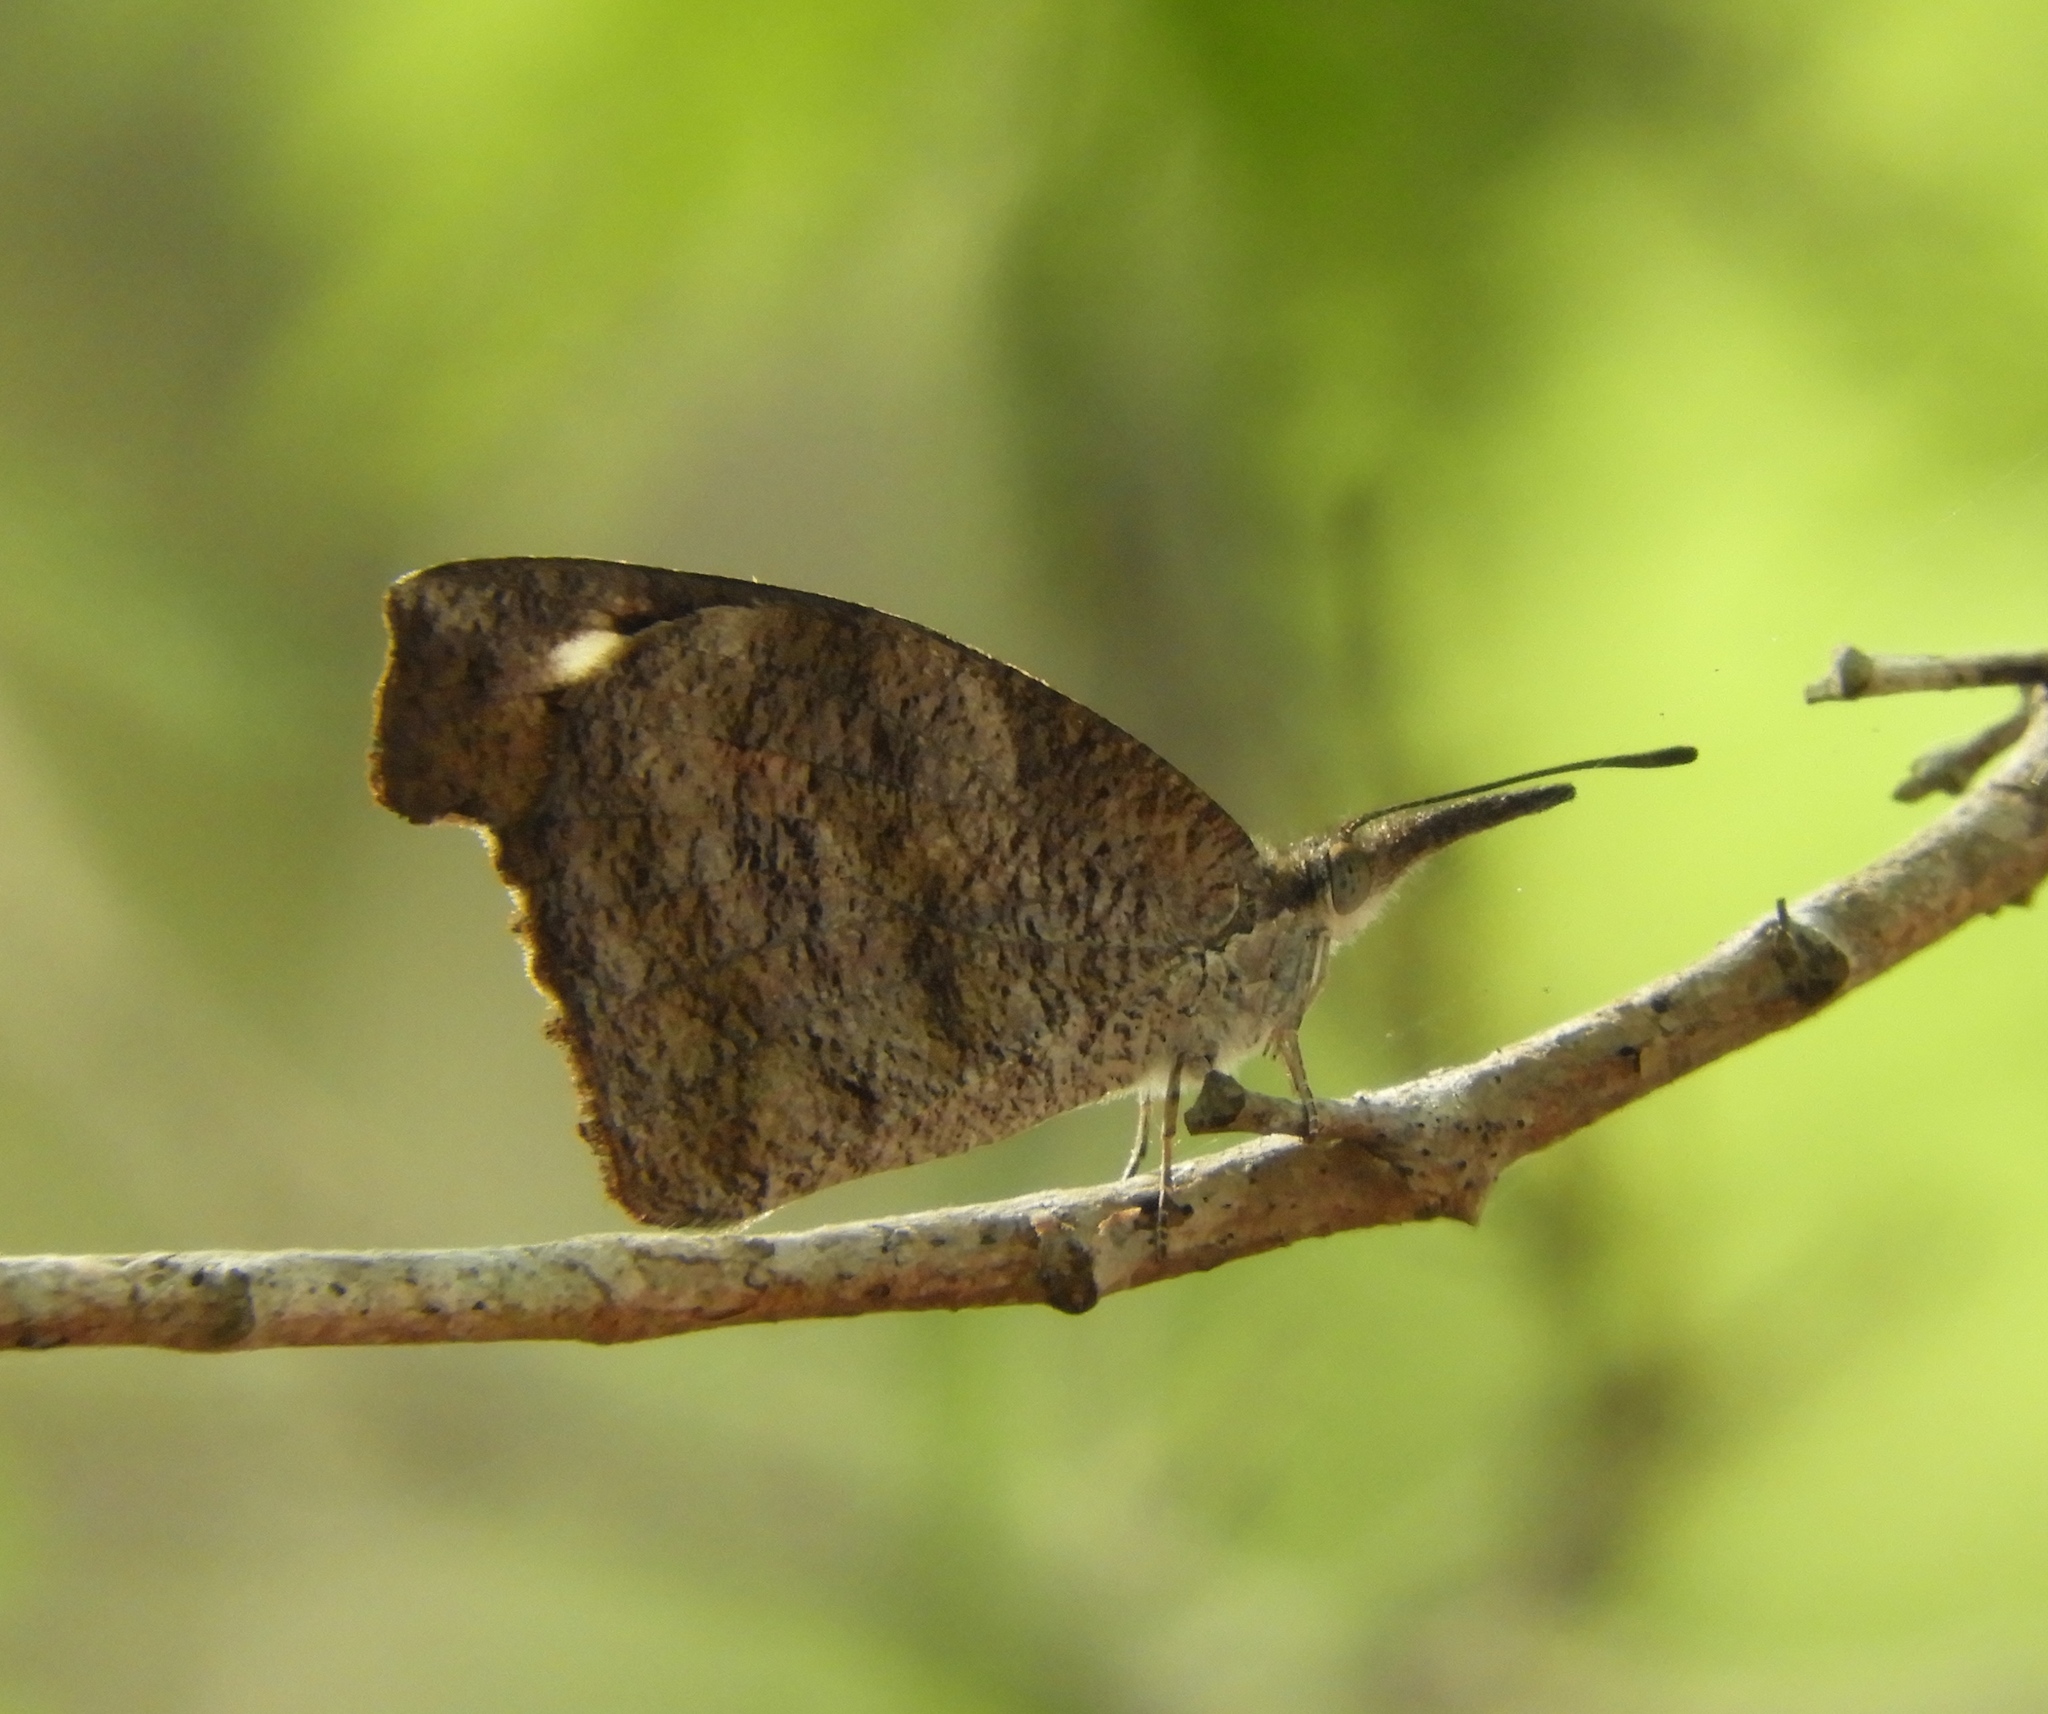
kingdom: Animalia
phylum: Arthropoda
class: Insecta
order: Lepidoptera
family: Nymphalidae
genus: Libytheana
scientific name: Libytheana carinenta
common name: American snout
